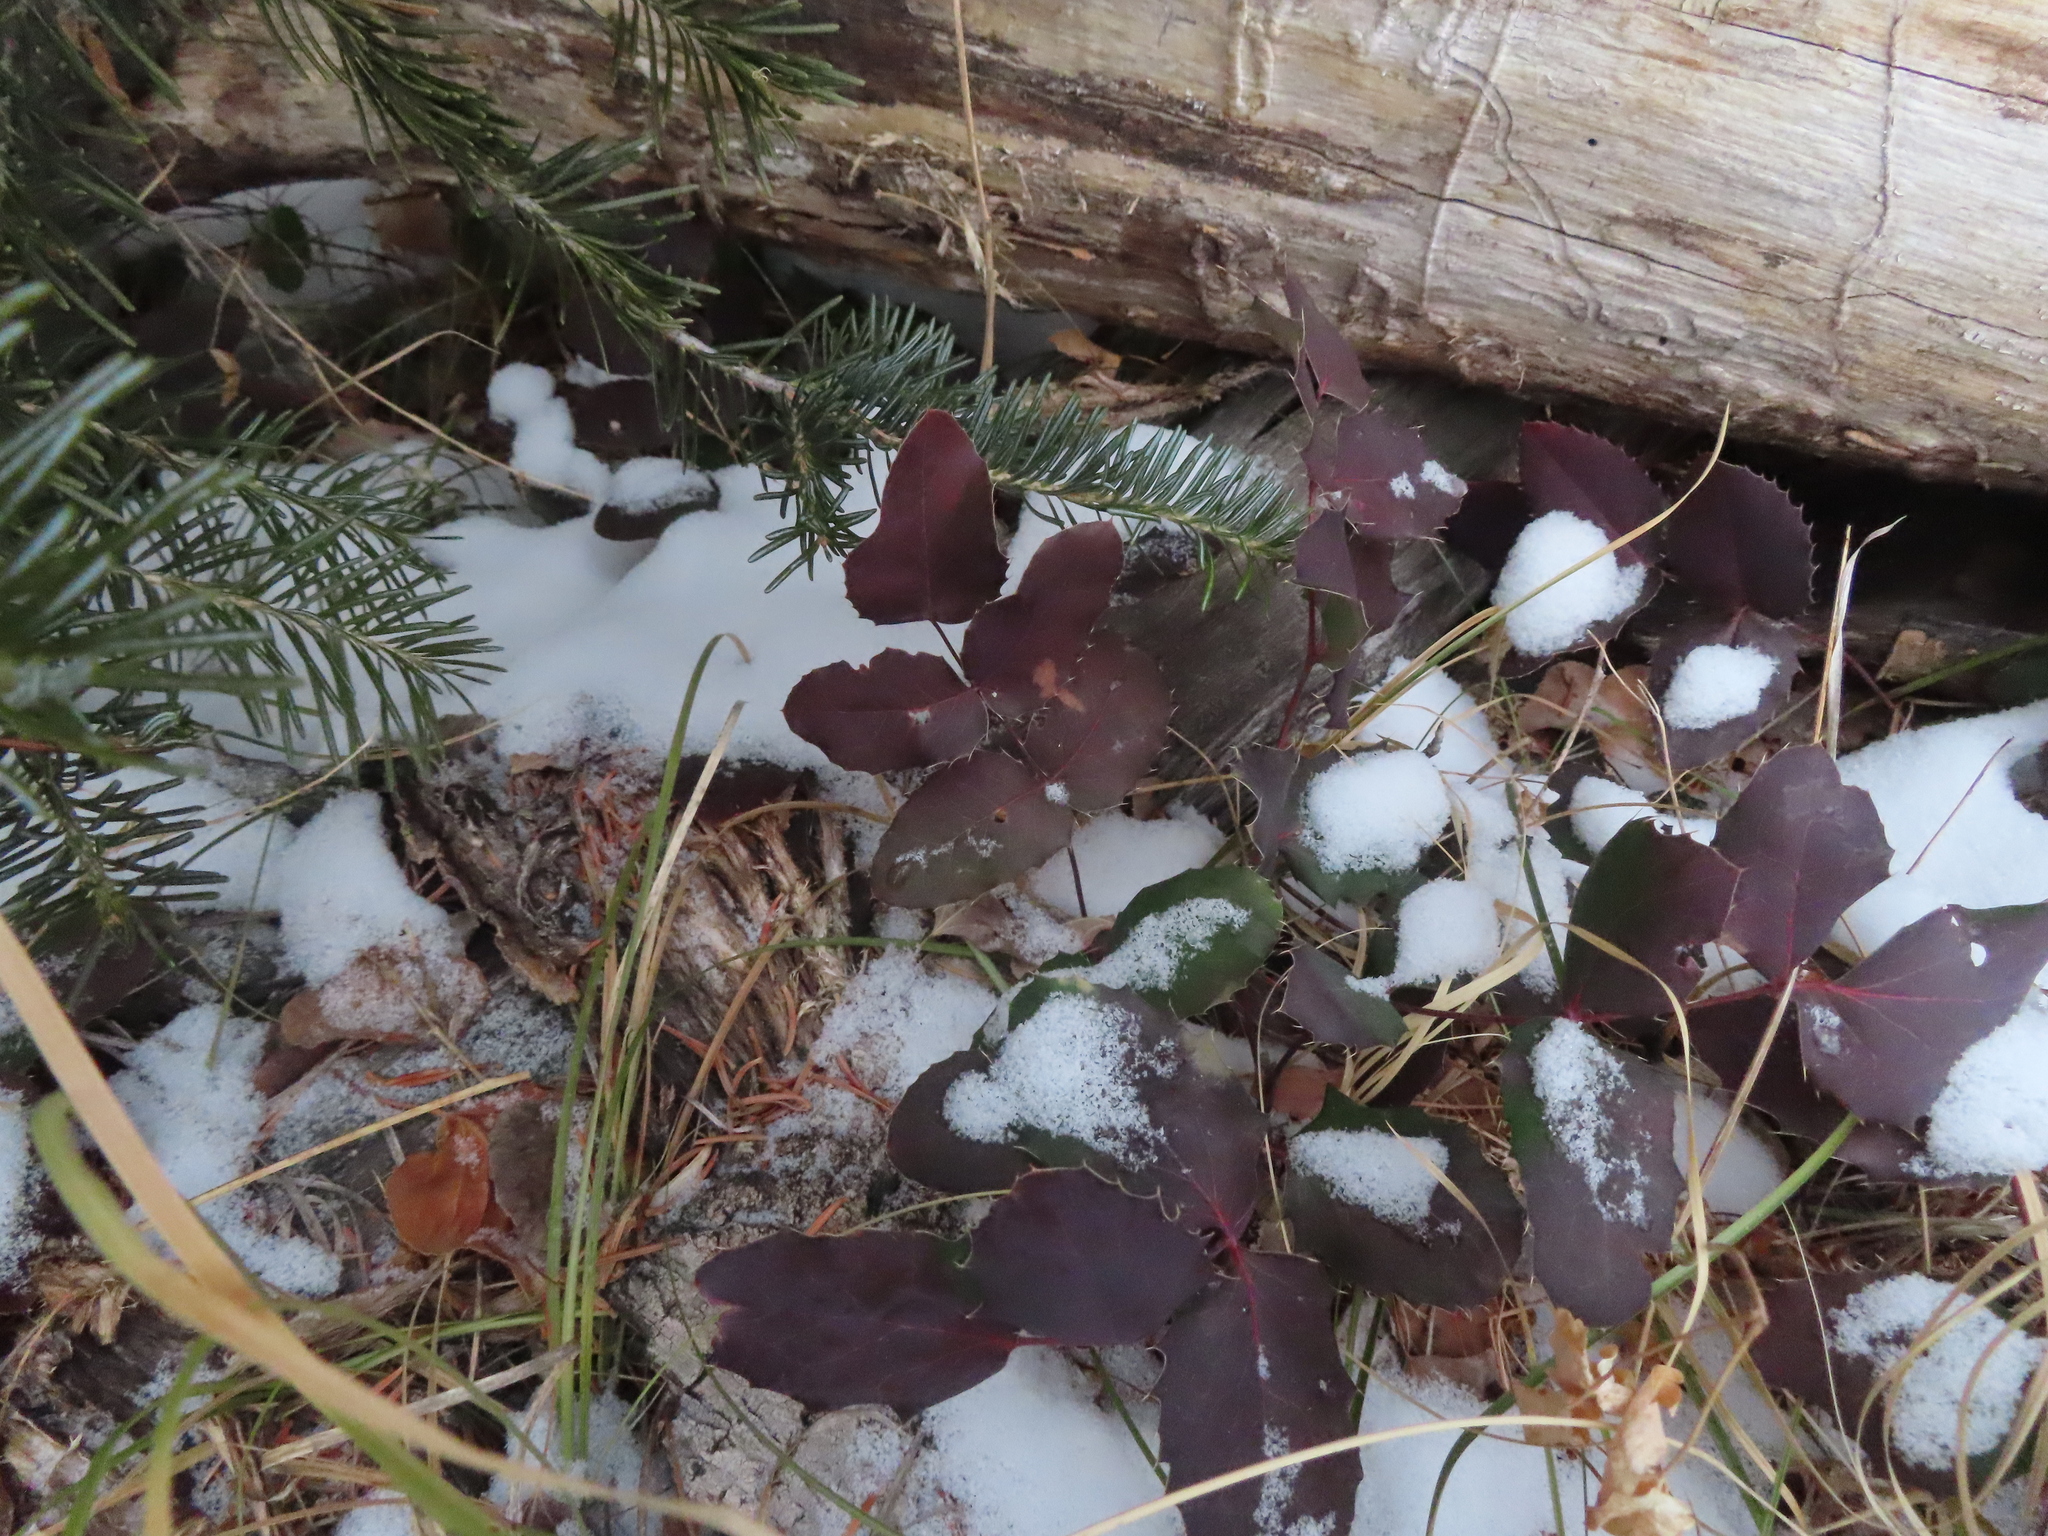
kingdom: Plantae
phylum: Tracheophyta
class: Magnoliopsida
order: Ranunculales
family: Berberidaceae
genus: Mahonia
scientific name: Mahonia repens
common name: Creeping oregon-grape
